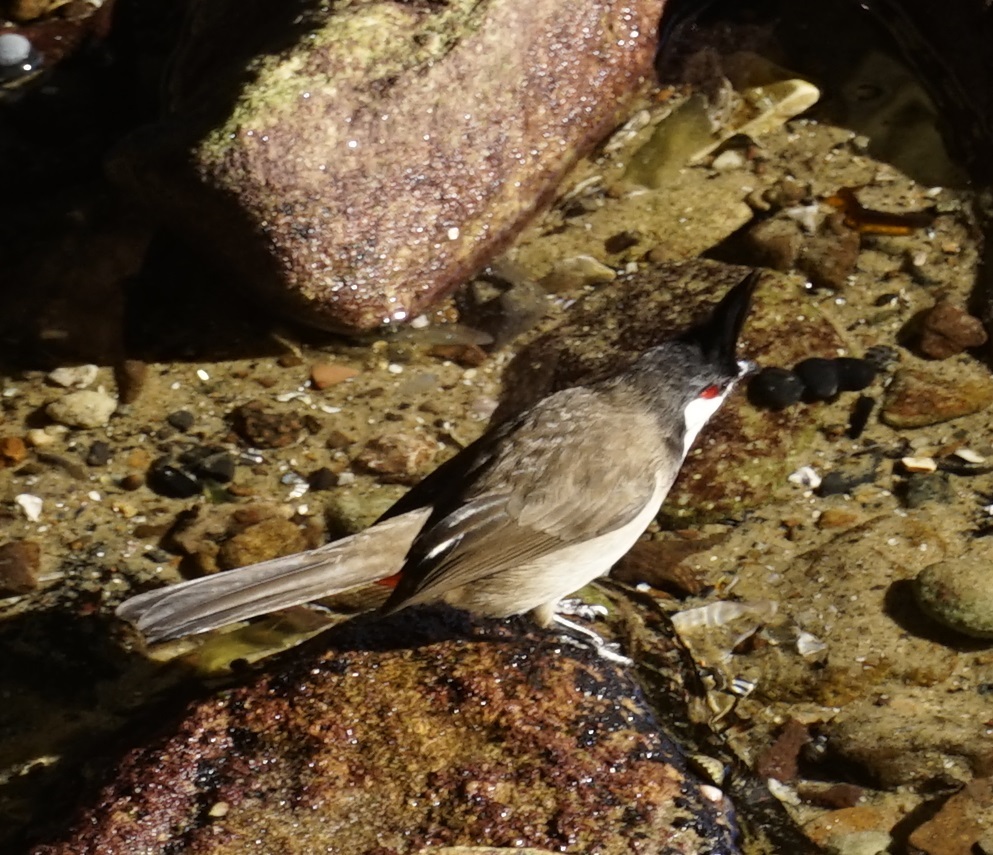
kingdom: Animalia
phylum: Chordata
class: Aves
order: Passeriformes
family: Pycnonotidae
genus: Pycnonotus
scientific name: Pycnonotus jocosus
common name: Red-whiskered bulbul
